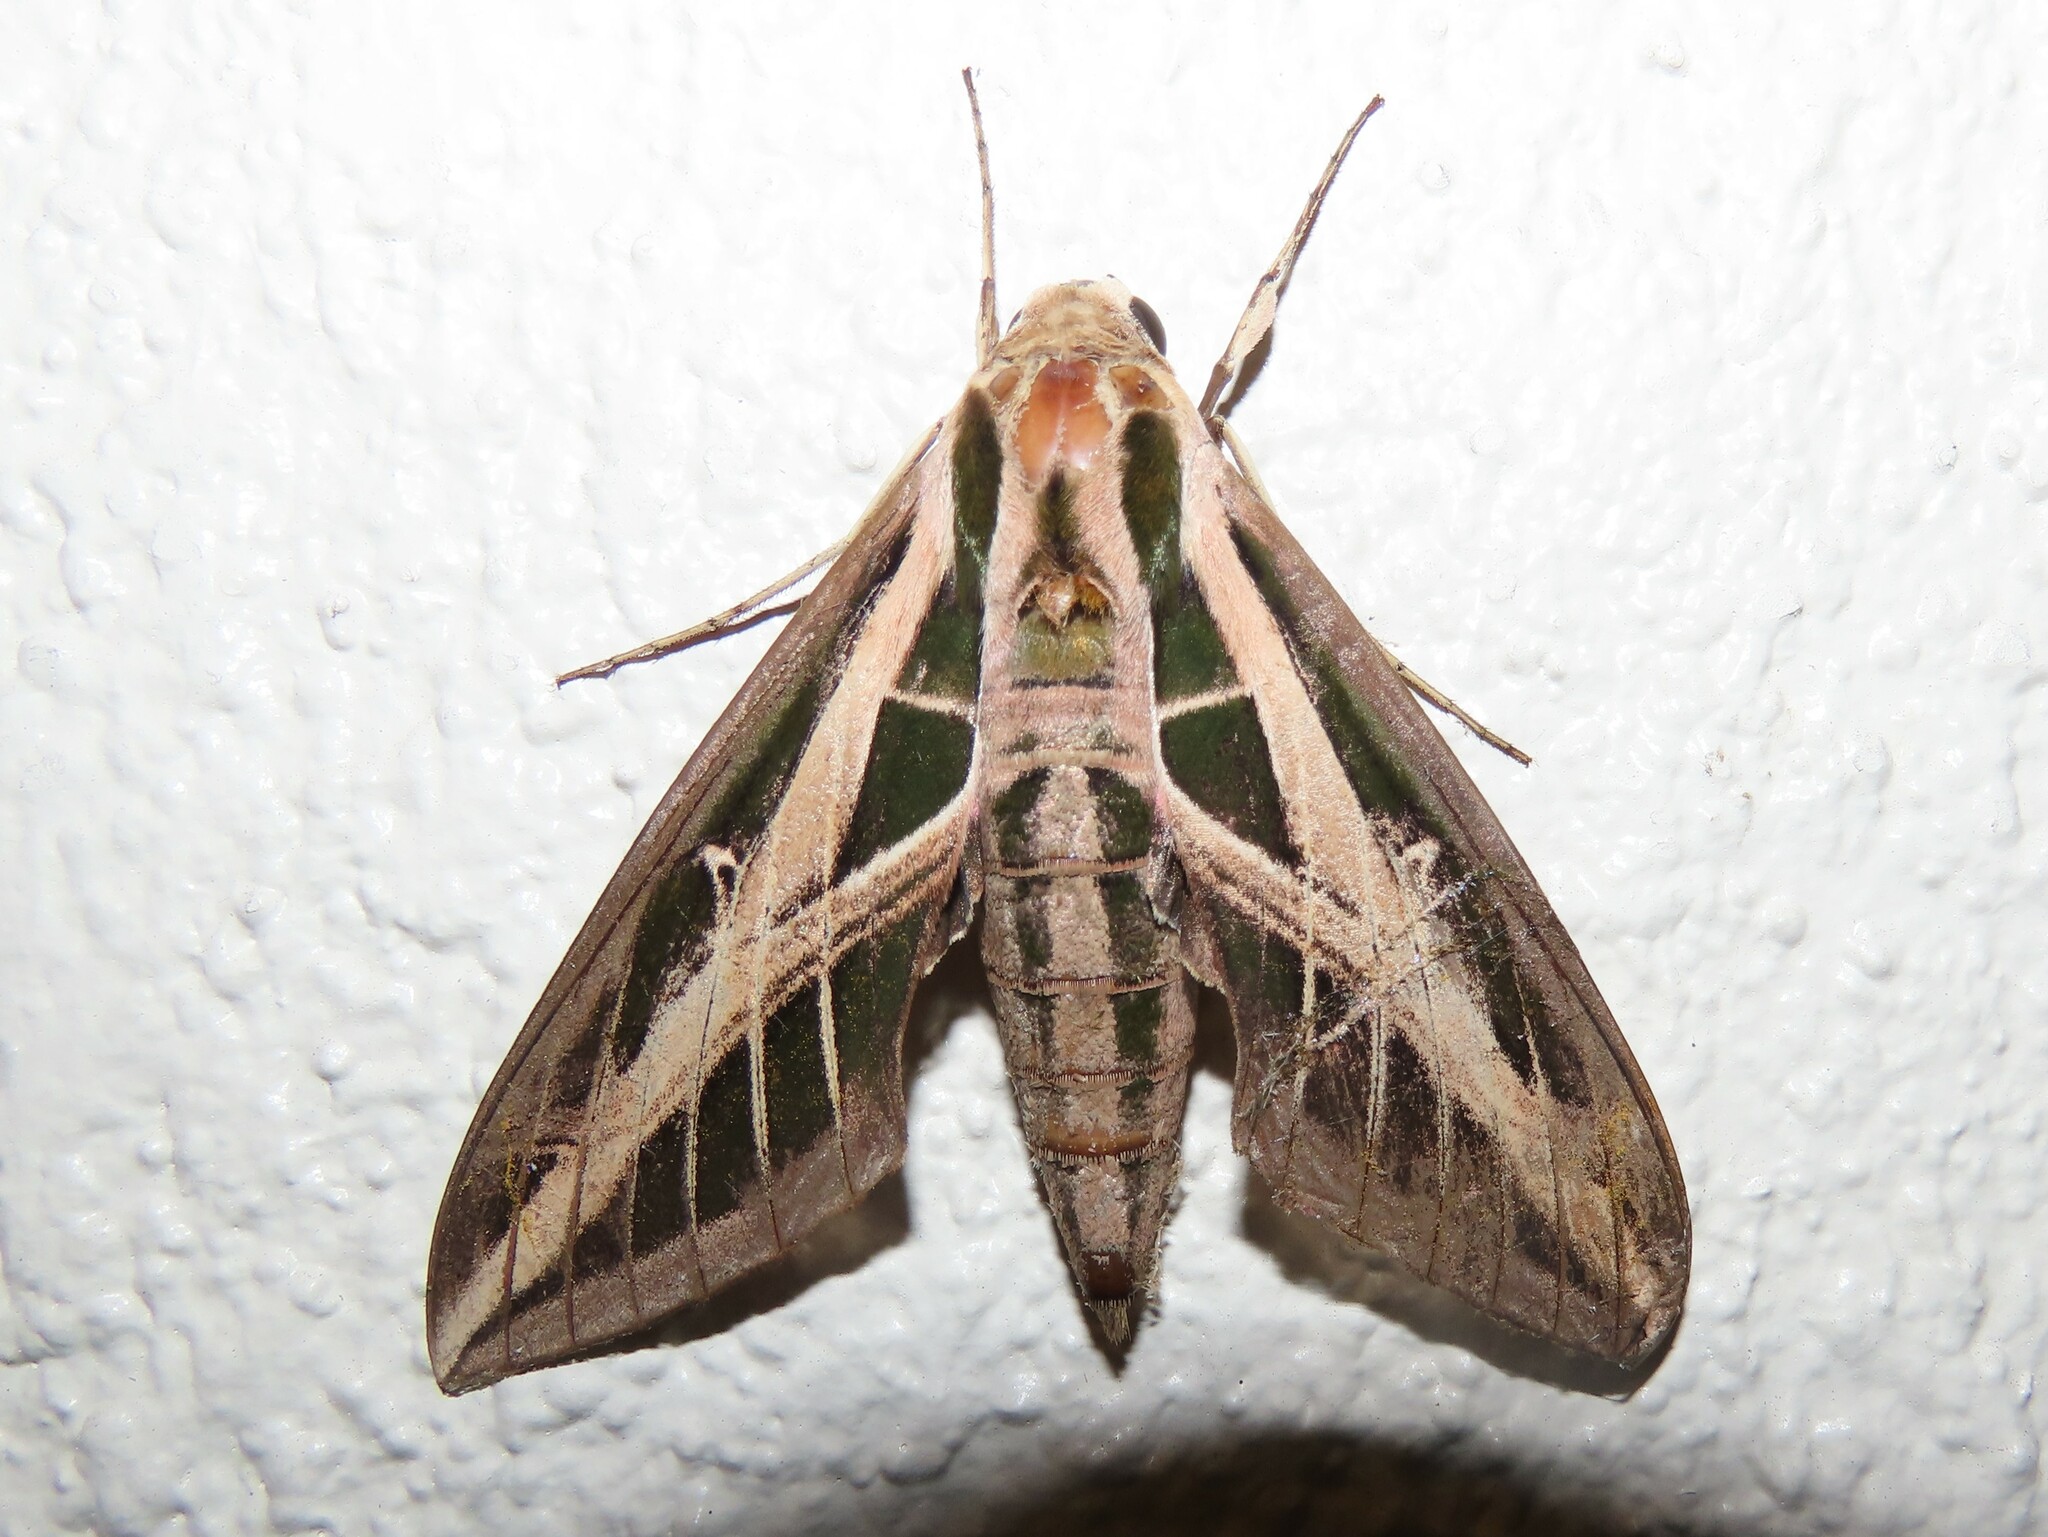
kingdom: Animalia
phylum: Arthropoda
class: Insecta
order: Lepidoptera
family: Sphingidae
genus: Eumorpha
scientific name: Eumorpha fasciatus
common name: Banded sphinx
